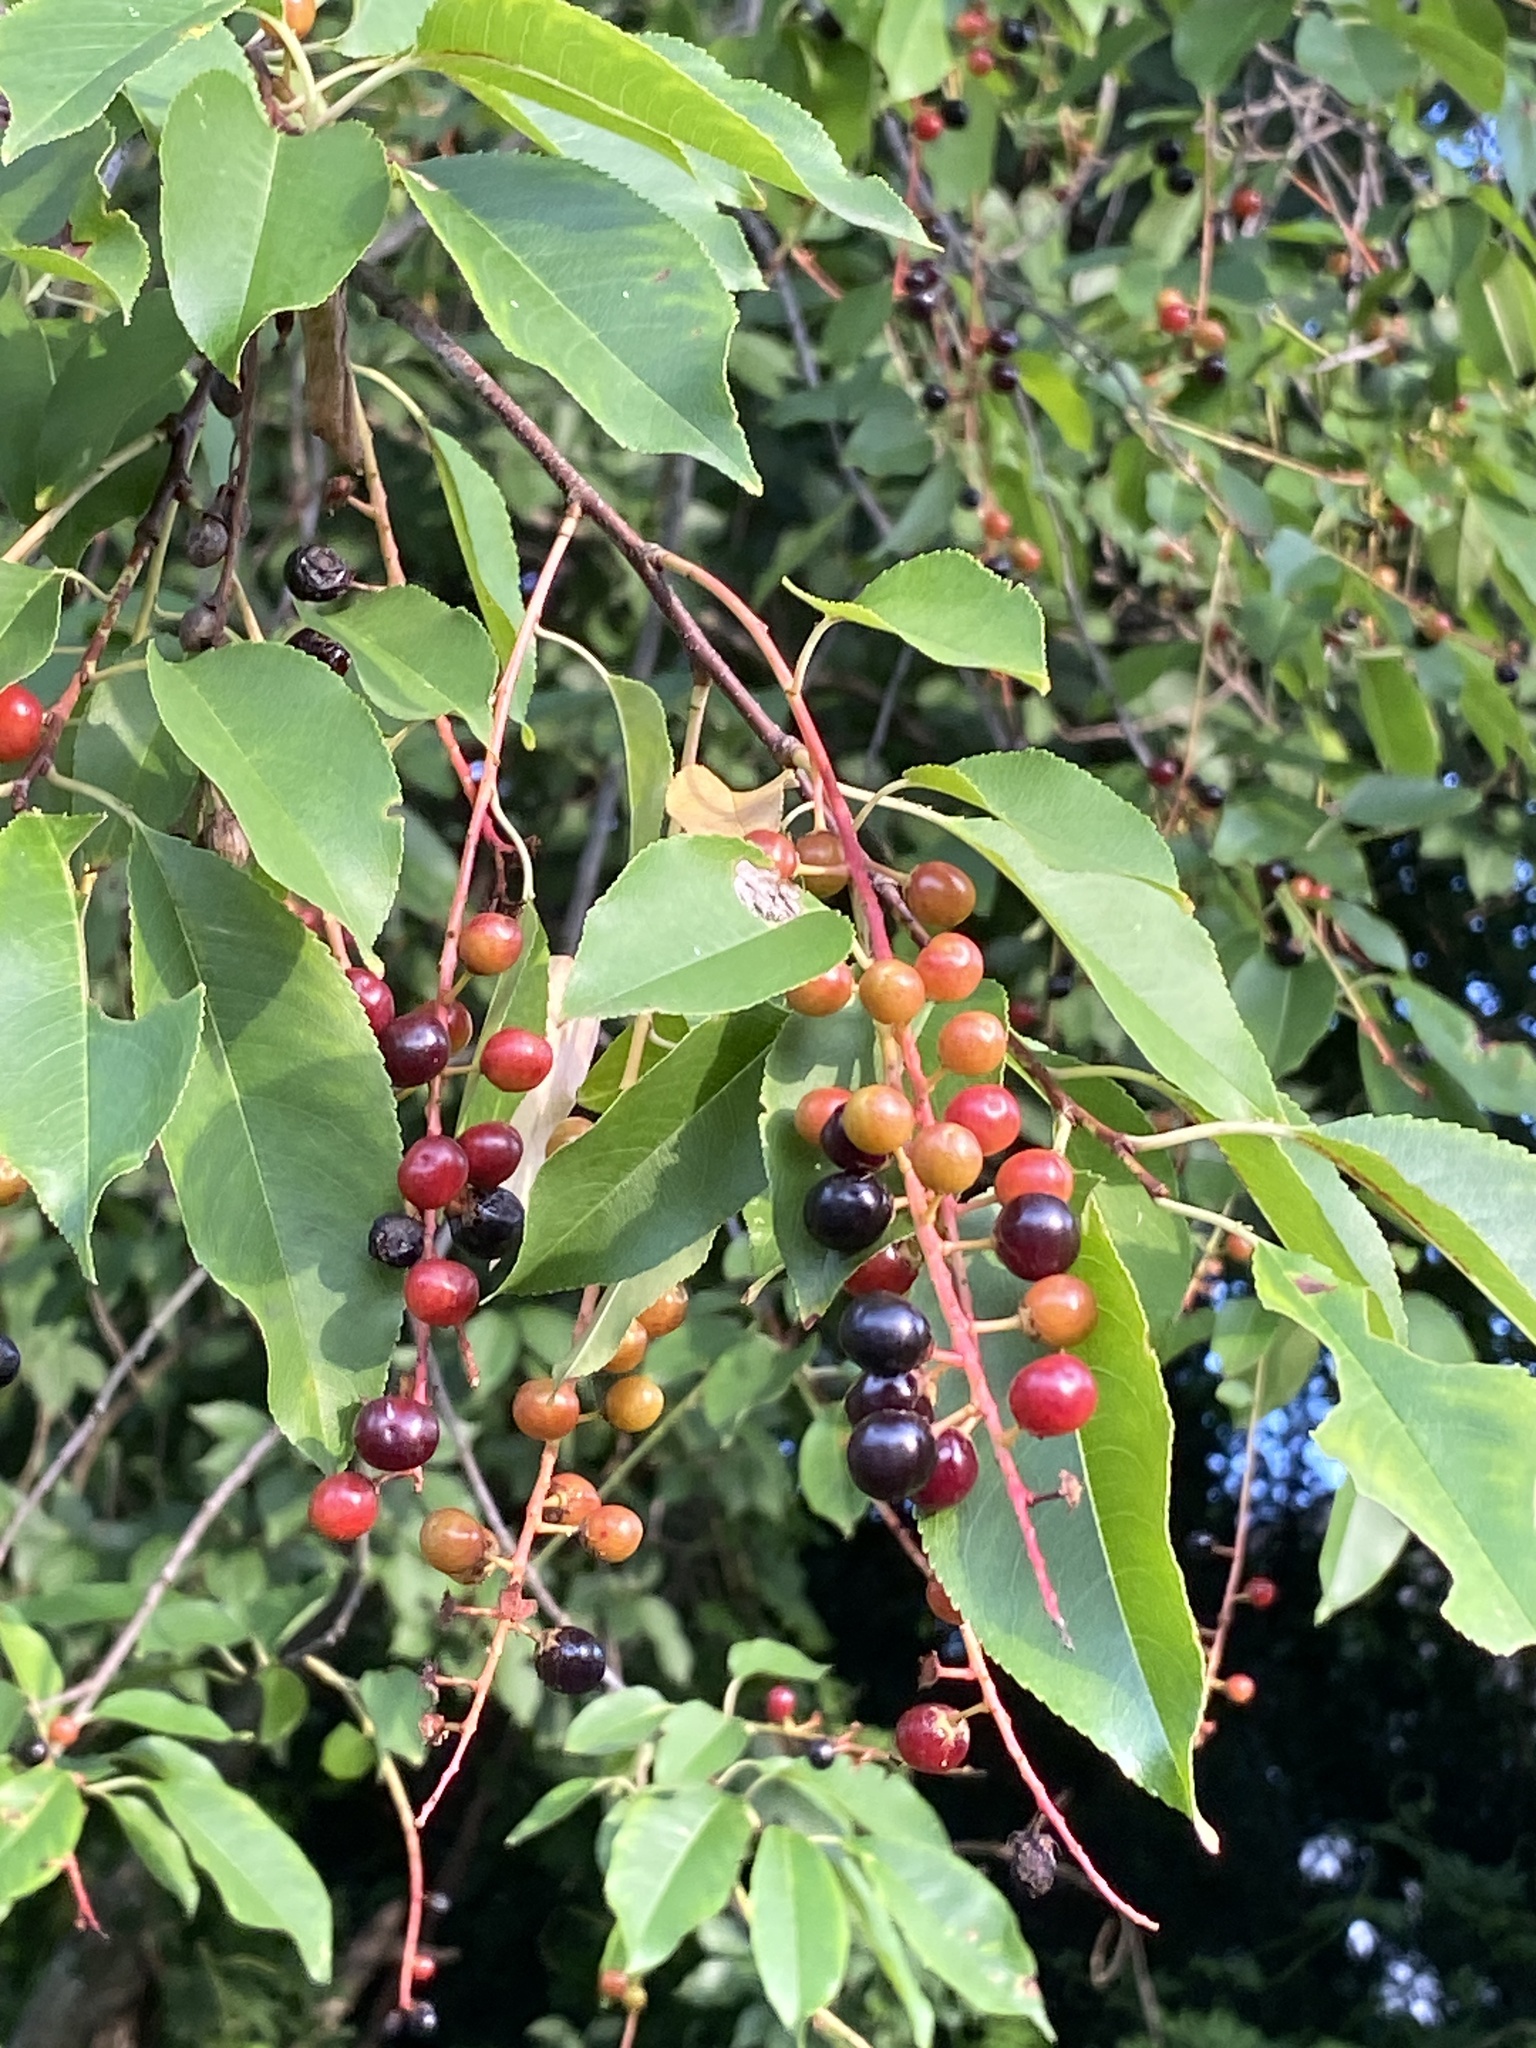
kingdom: Plantae
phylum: Tracheophyta
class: Magnoliopsida
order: Rosales
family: Rosaceae
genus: Prunus
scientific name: Prunus serotina
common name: Black cherry
